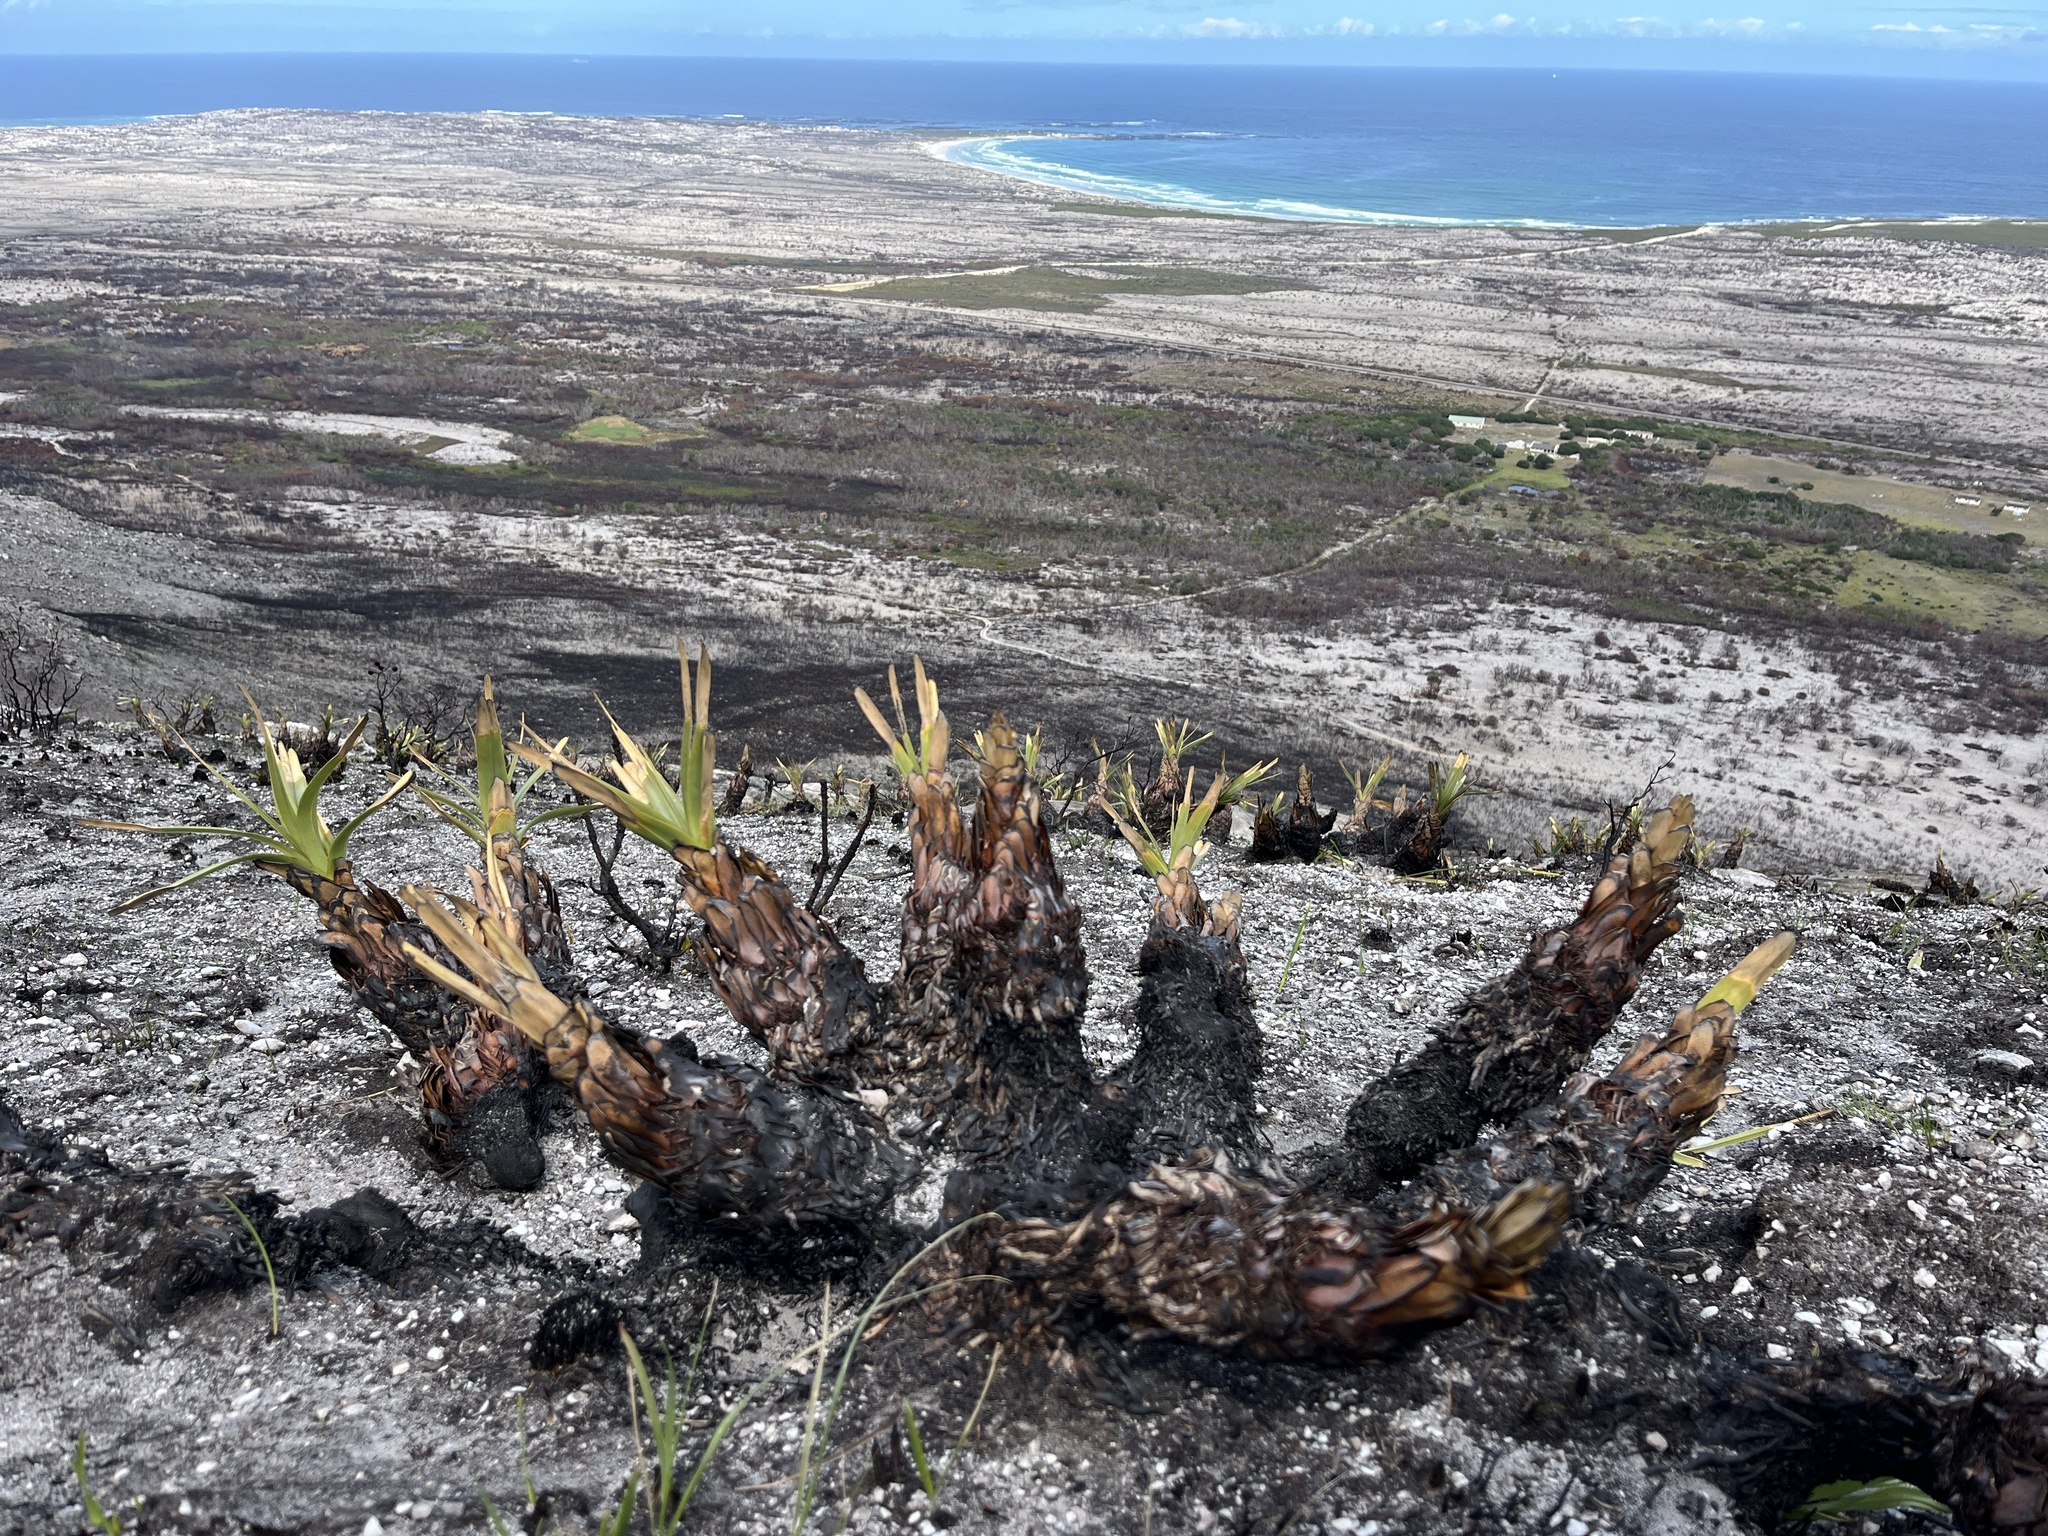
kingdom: Plantae
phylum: Tracheophyta
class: Liliopsida
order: Poales
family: Cyperaceae
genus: Tetraria
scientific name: Tetraria thermalis
